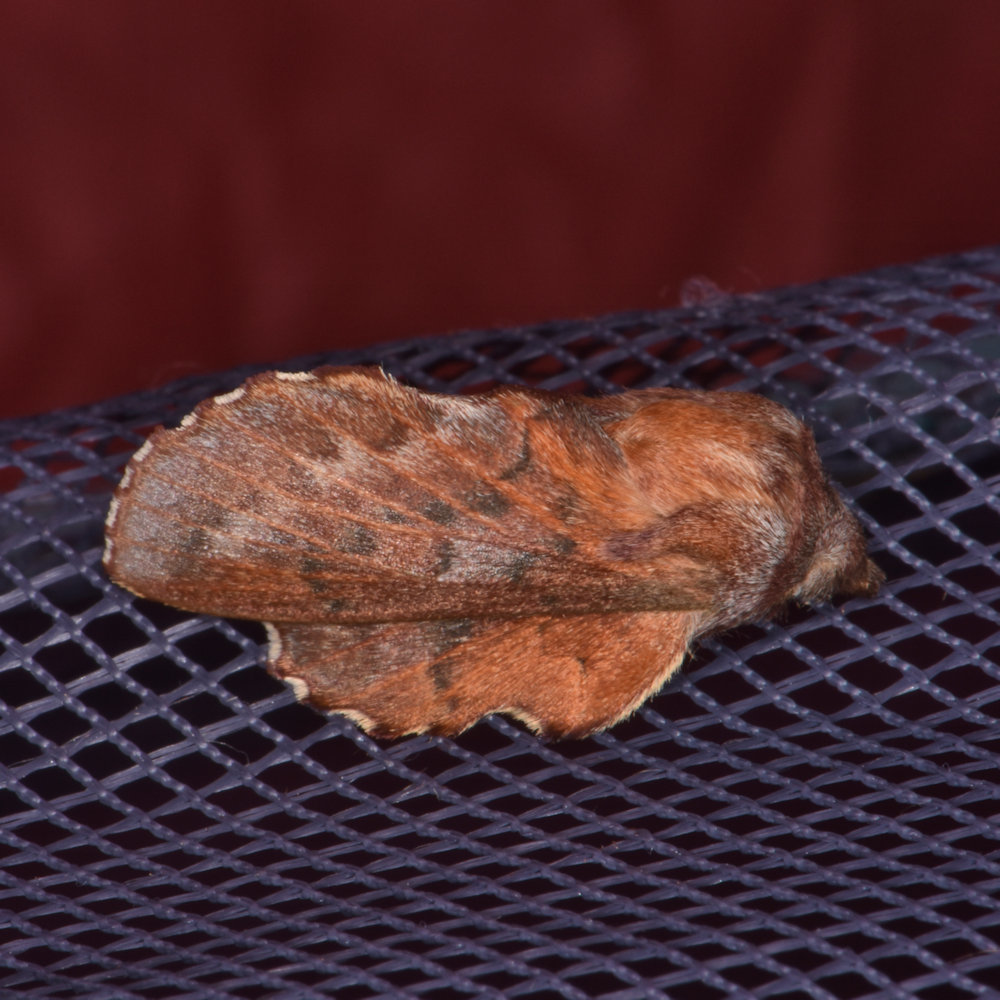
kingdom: Animalia
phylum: Arthropoda
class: Insecta
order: Lepidoptera
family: Lasiocampidae
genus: Phyllodesma
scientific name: Phyllodesma americana
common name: American lappet moth
